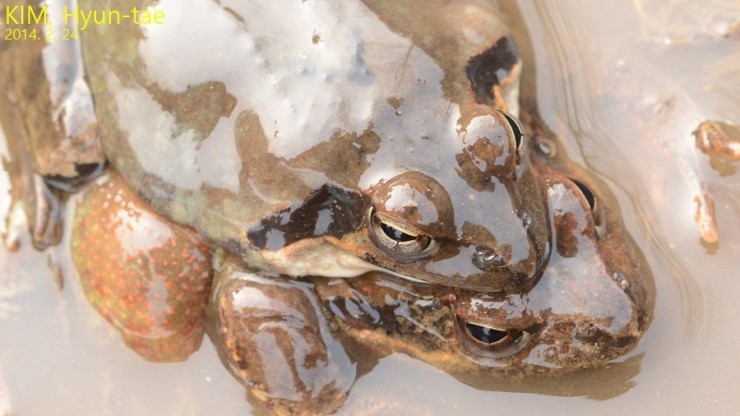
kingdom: Animalia
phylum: Chordata
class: Amphibia
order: Anura
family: Ranidae
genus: Rana
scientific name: Rana uenoi
